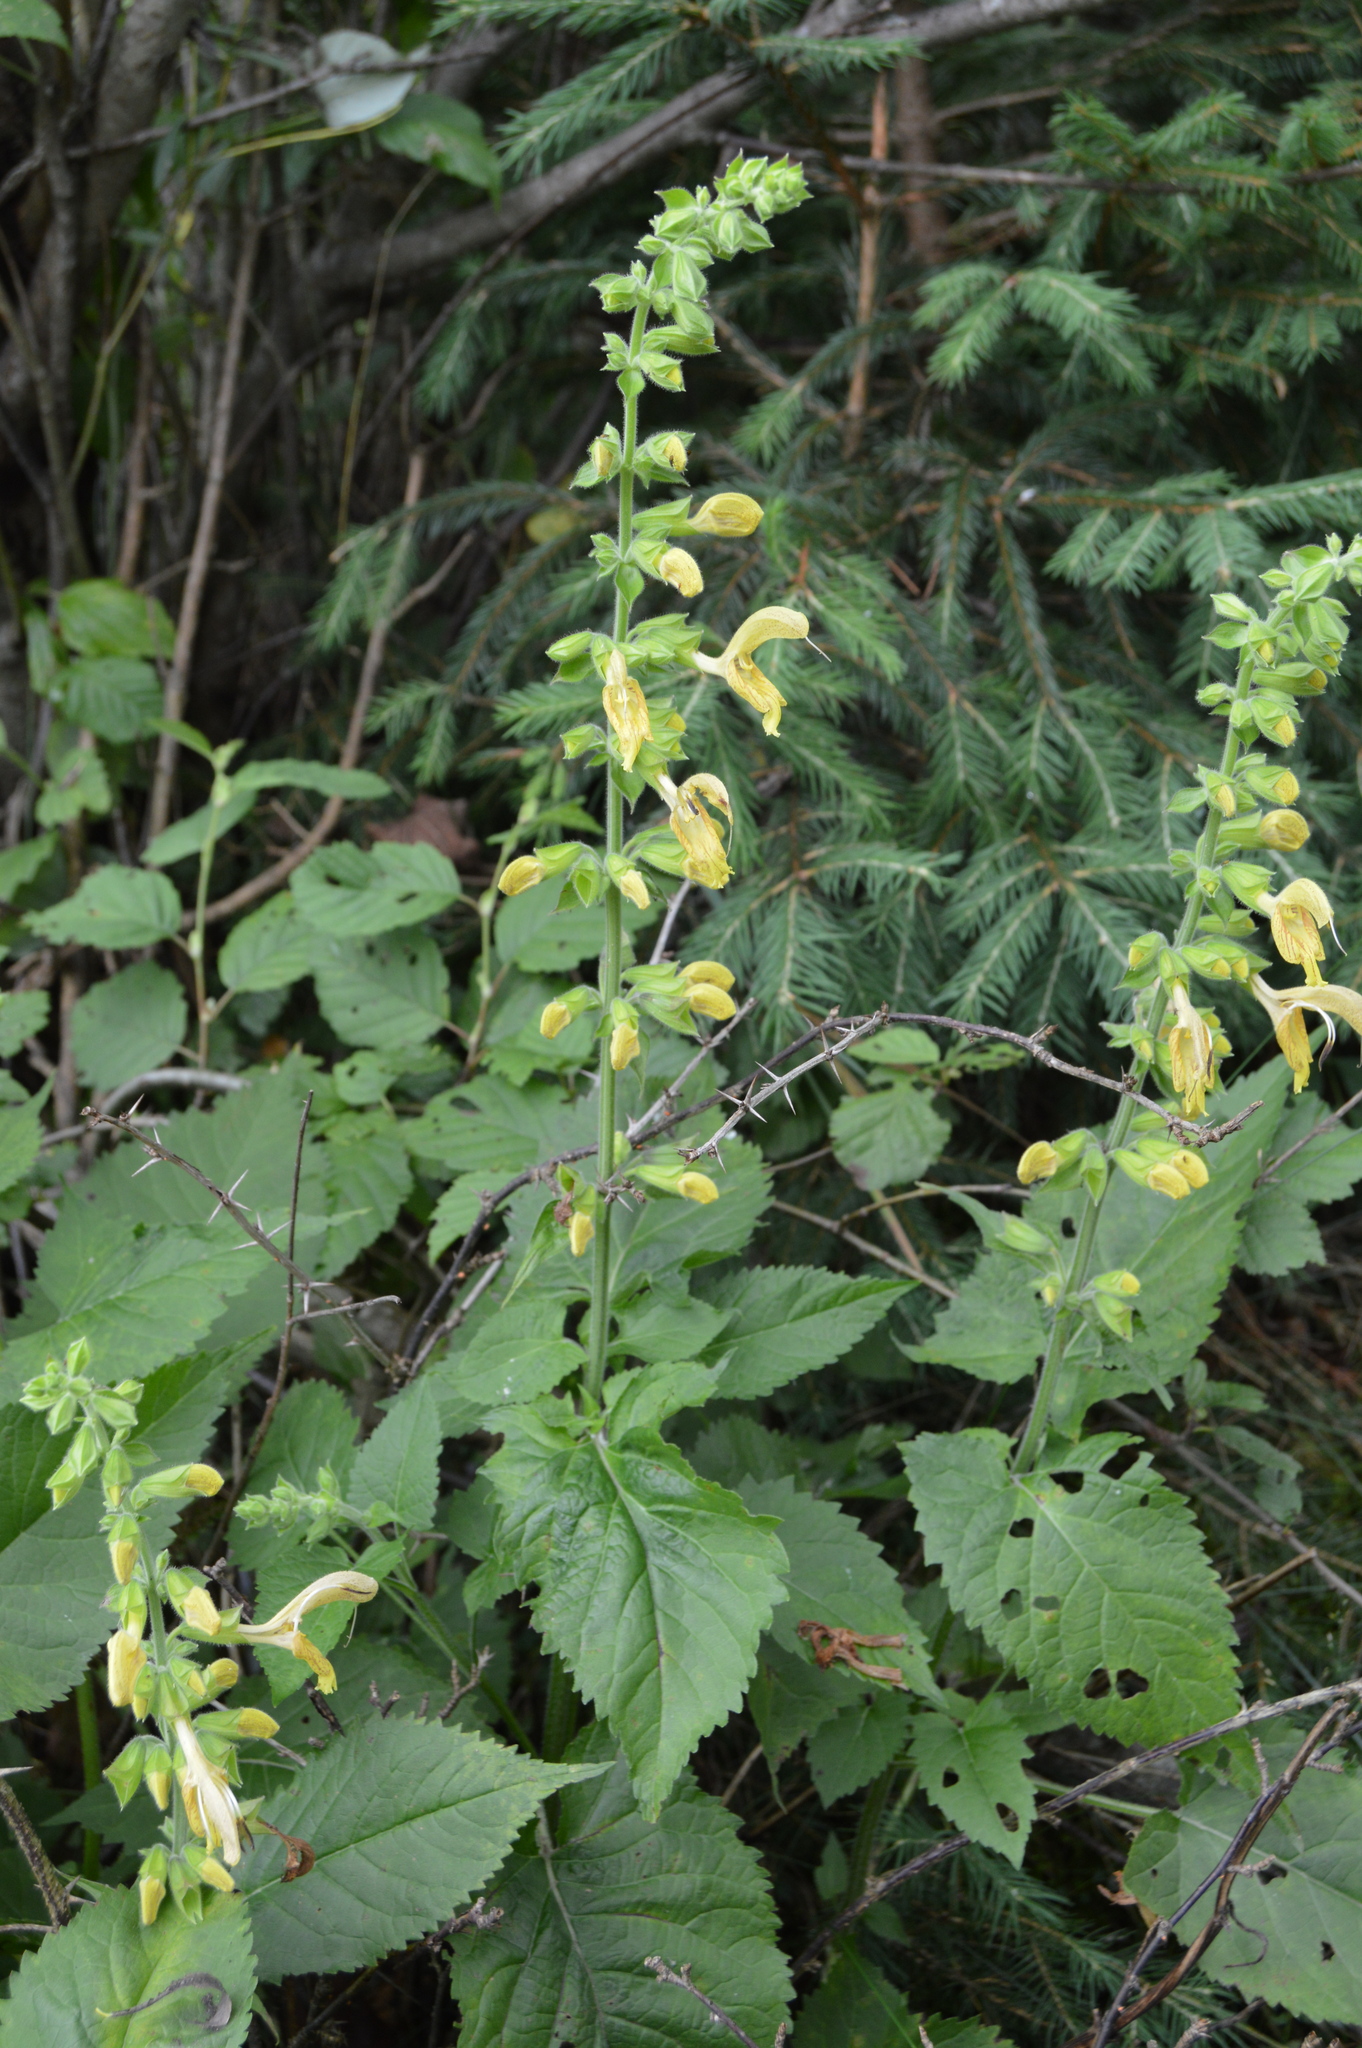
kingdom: Plantae
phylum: Tracheophyta
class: Magnoliopsida
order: Lamiales
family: Lamiaceae
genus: Salvia
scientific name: Salvia glutinosa
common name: Sticky clary
